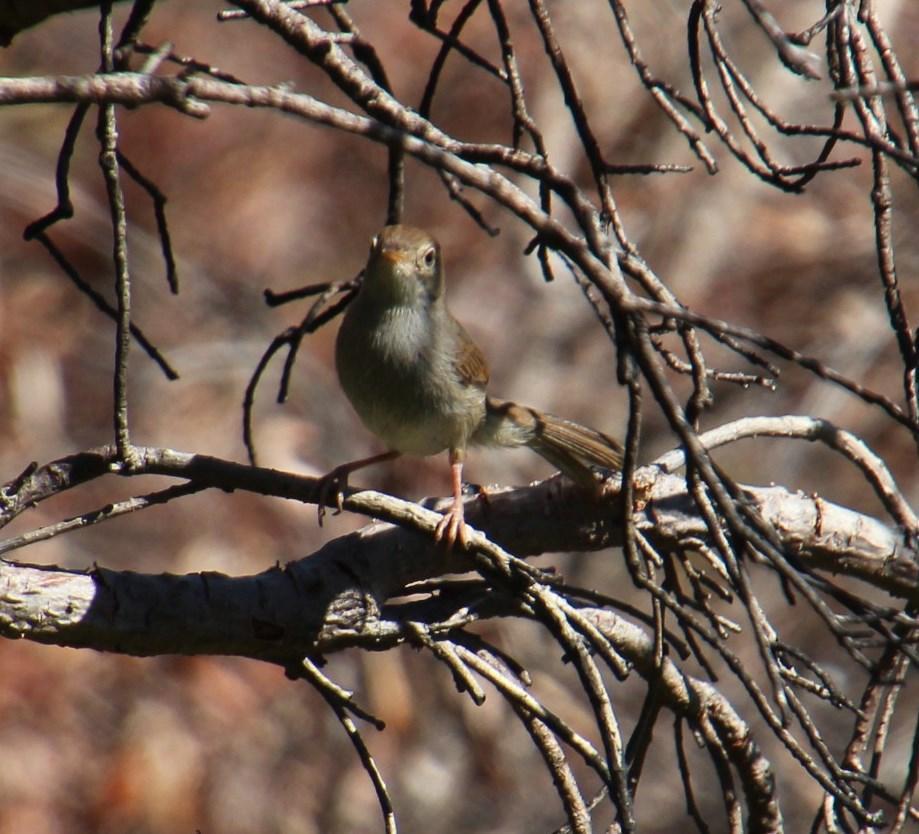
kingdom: Animalia
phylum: Chordata
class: Aves
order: Passeriformes
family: Cisticolidae
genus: Cisticola
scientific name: Cisticola fulvicapilla
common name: Neddicky
